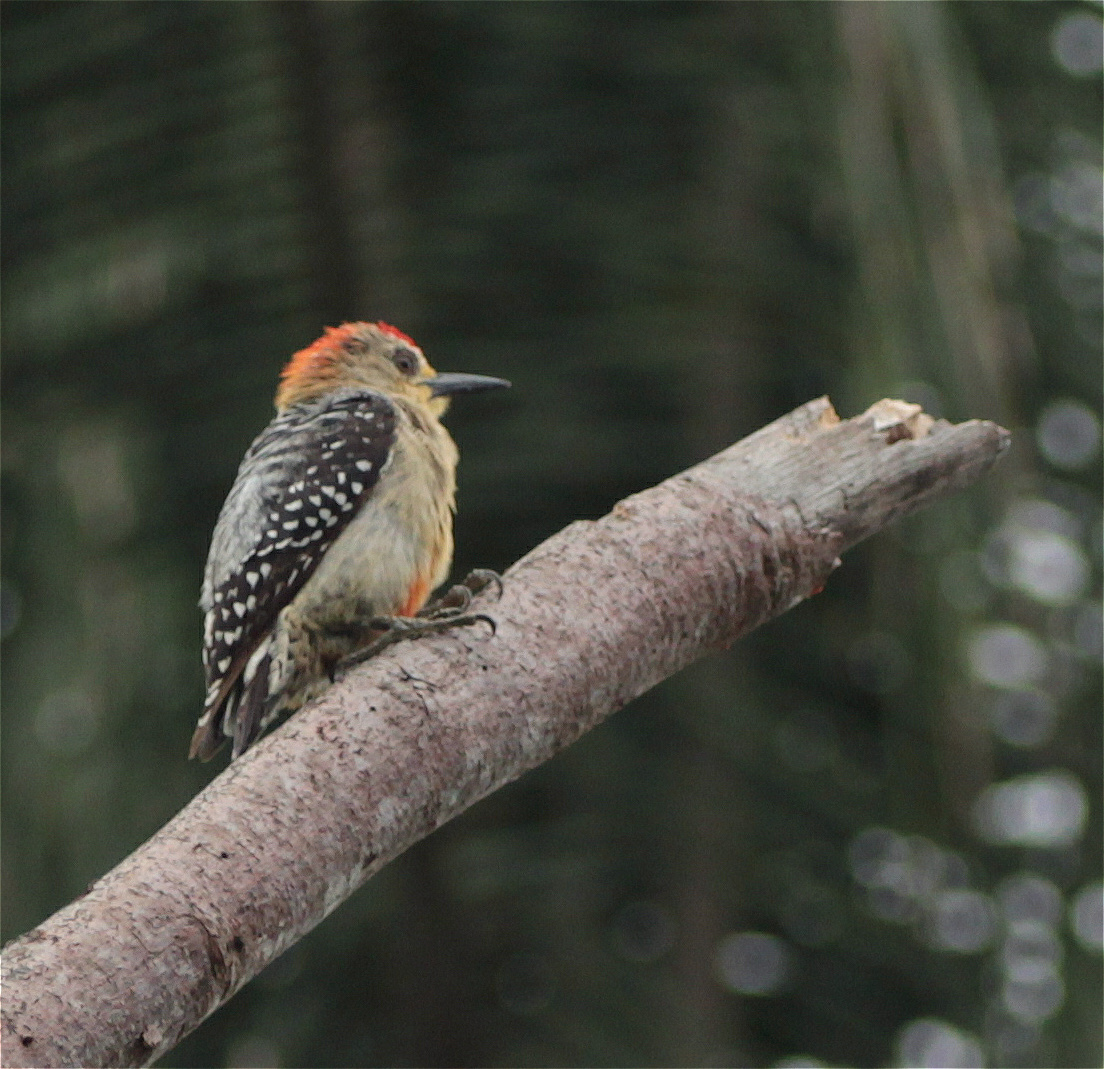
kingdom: Animalia
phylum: Chordata
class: Aves
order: Piciformes
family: Picidae
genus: Melanerpes
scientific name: Melanerpes rubricapillus
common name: Red-crowned woodpecker
